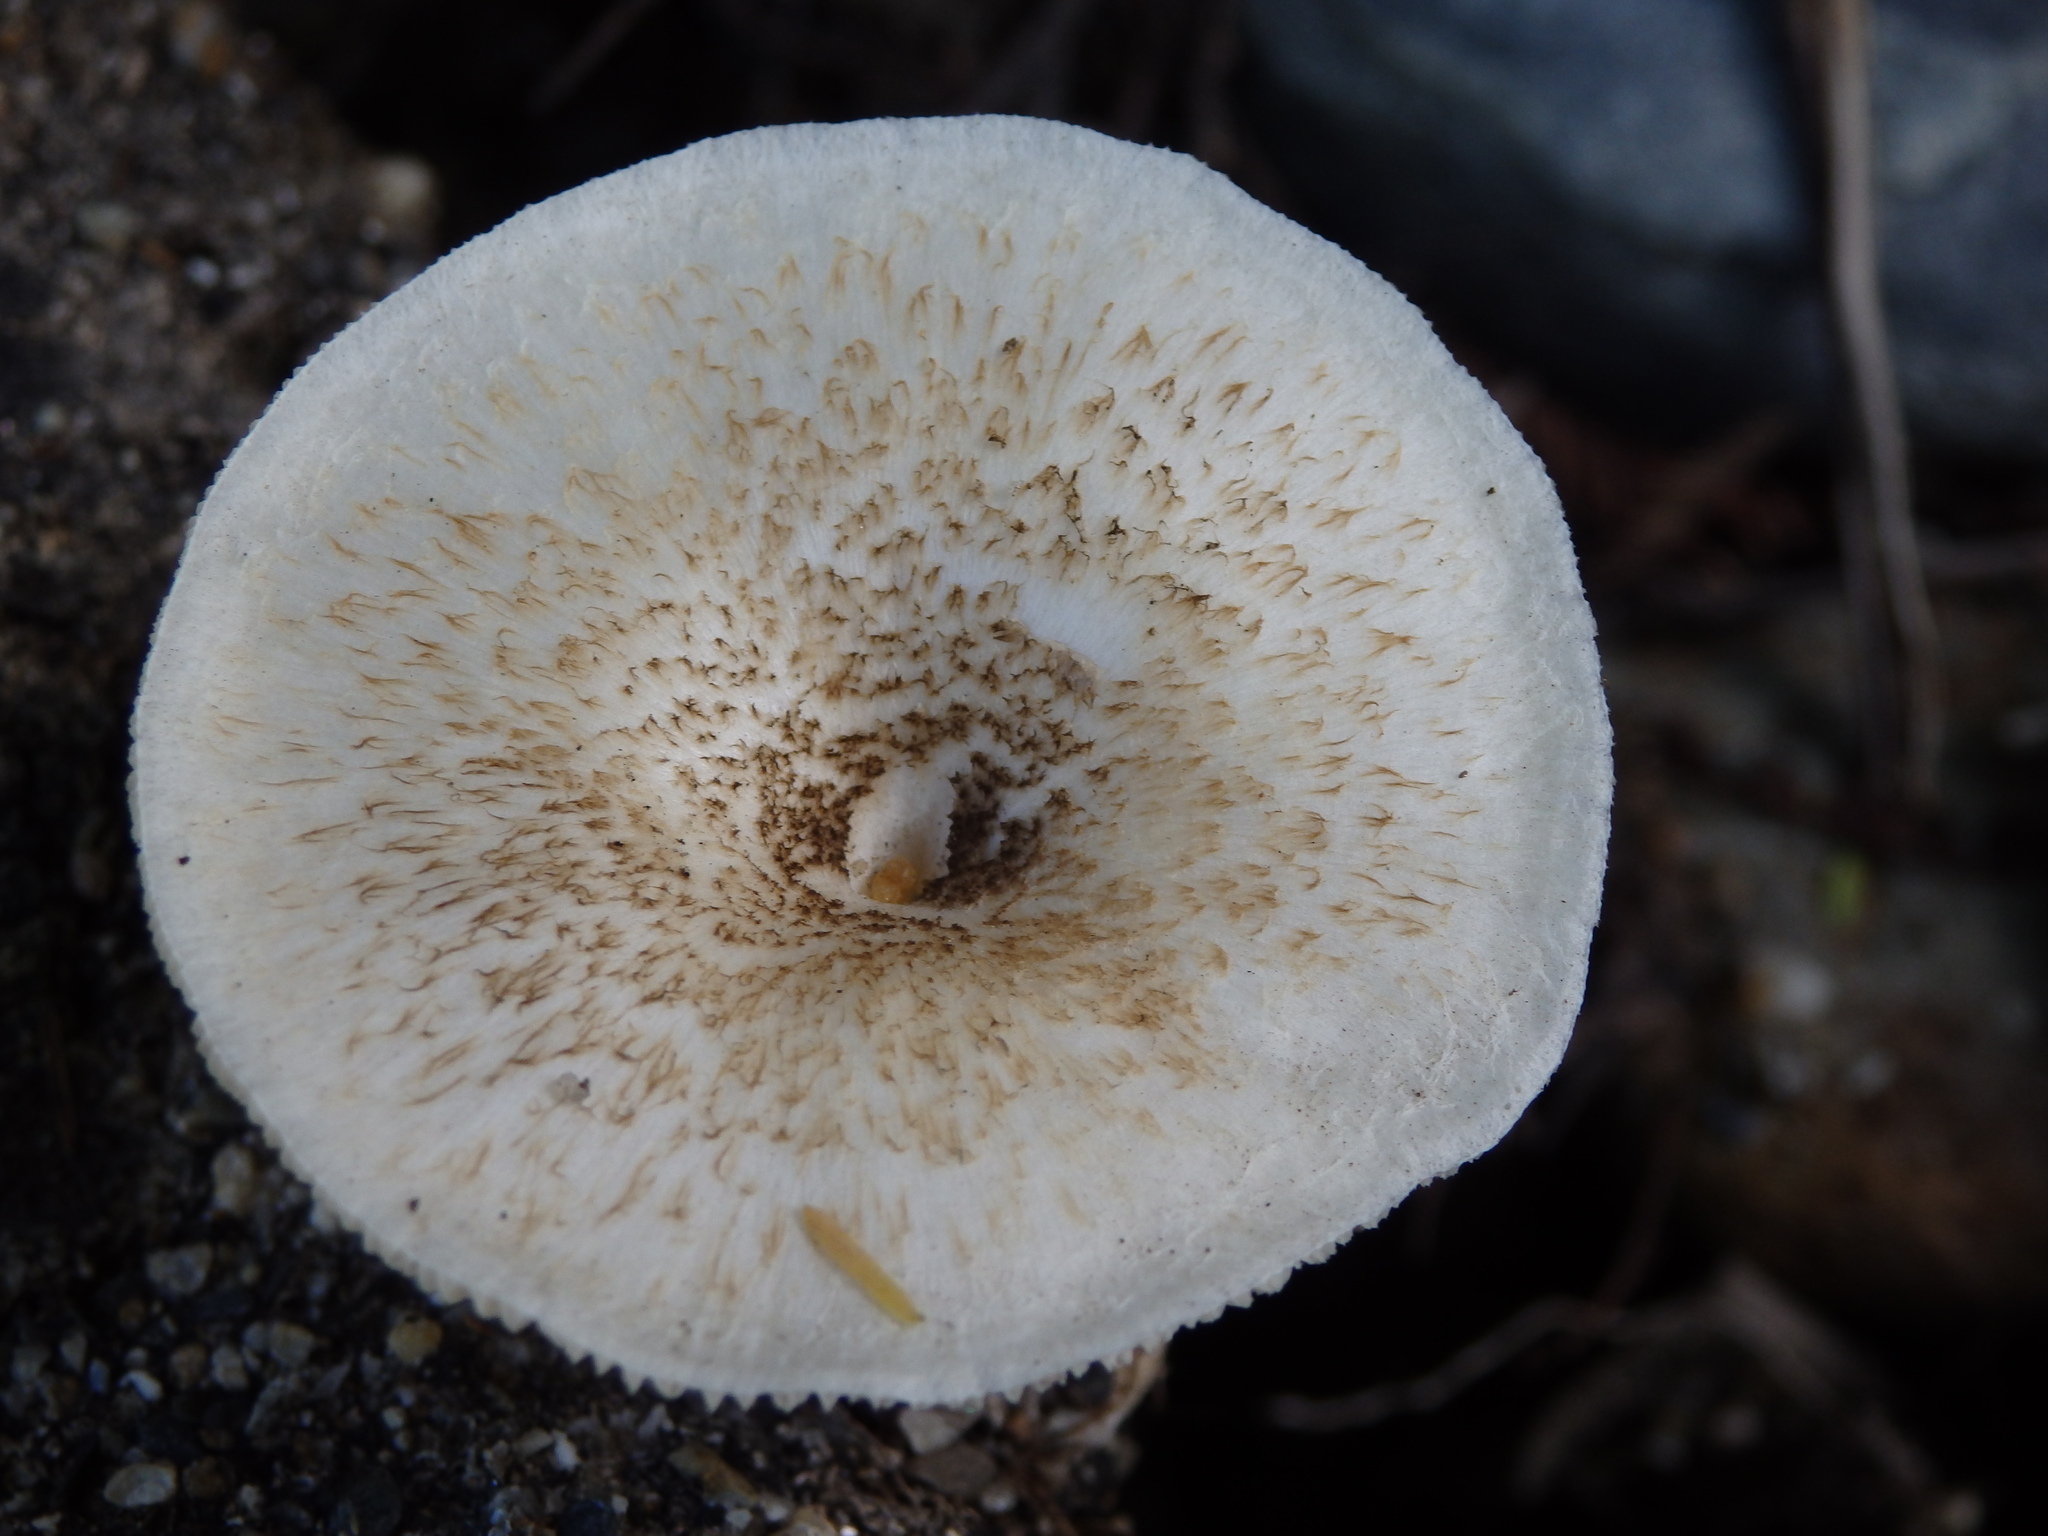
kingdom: Fungi
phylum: Basidiomycota
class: Agaricomycetes
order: Polyporales
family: Polyporaceae
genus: Lentinus
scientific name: Lentinus tigrinus
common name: Tiger sawgill
